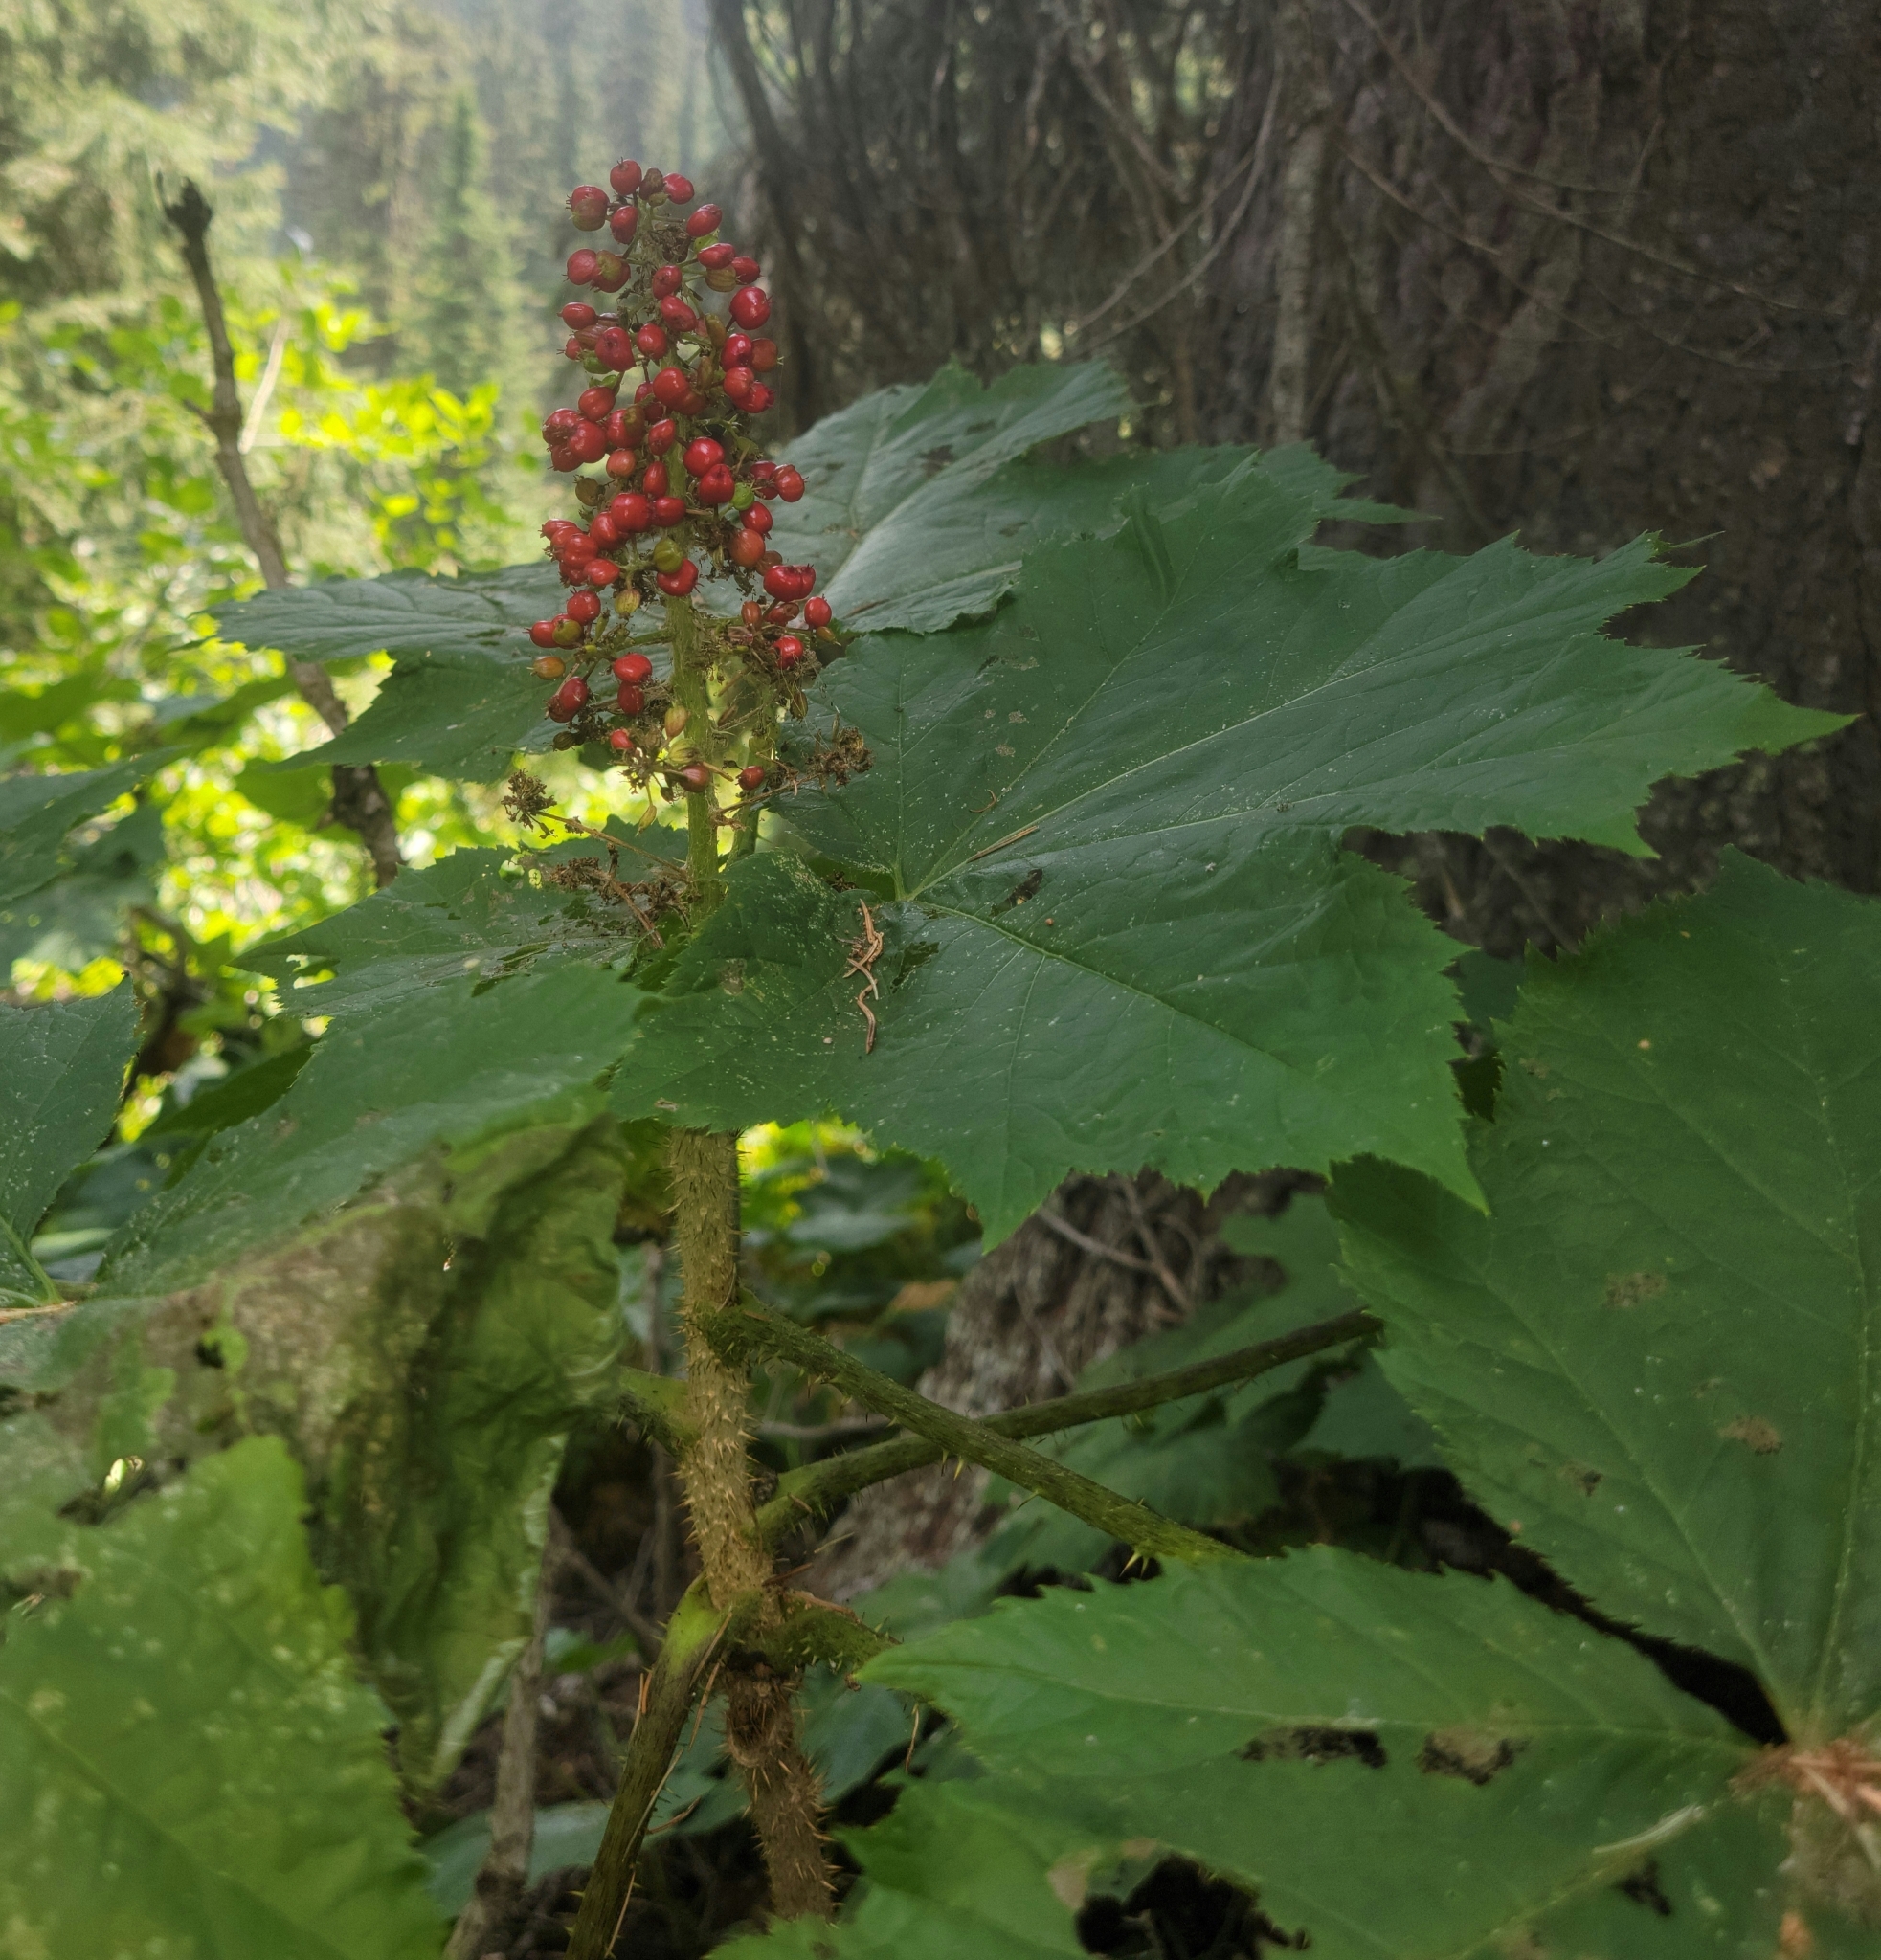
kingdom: Plantae
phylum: Tracheophyta
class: Magnoliopsida
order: Apiales
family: Araliaceae
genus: Oplopanax
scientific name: Oplopanax horridus
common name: Devil's walking-stick
